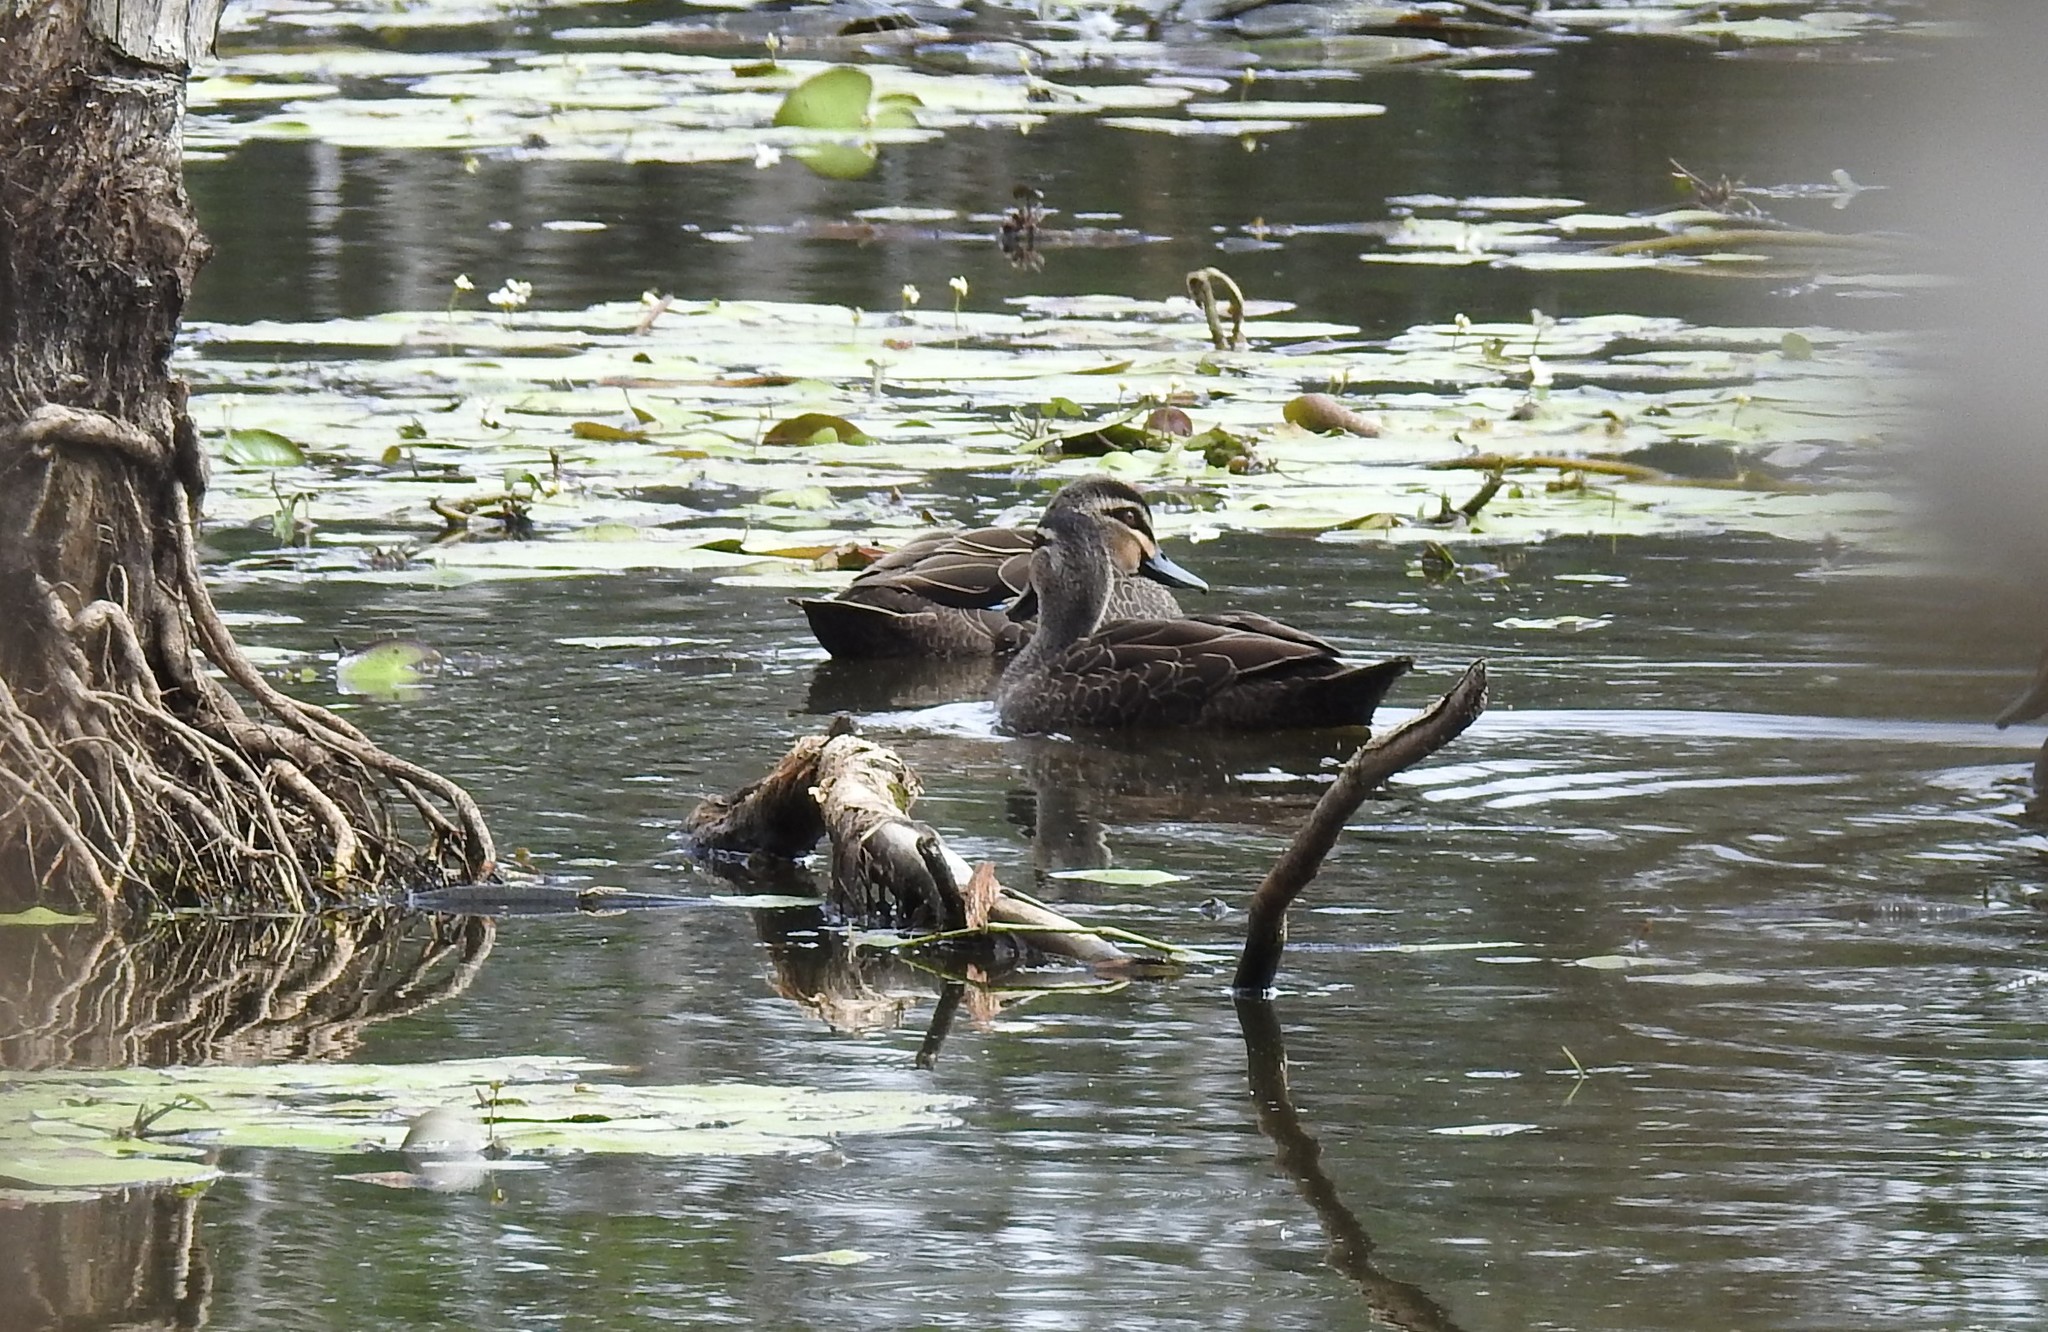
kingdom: Animalia
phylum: Chordata
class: Aves
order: Anseriformes
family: Anatidae
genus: Anas
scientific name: Anas superciliosa
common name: Pacific black duck
